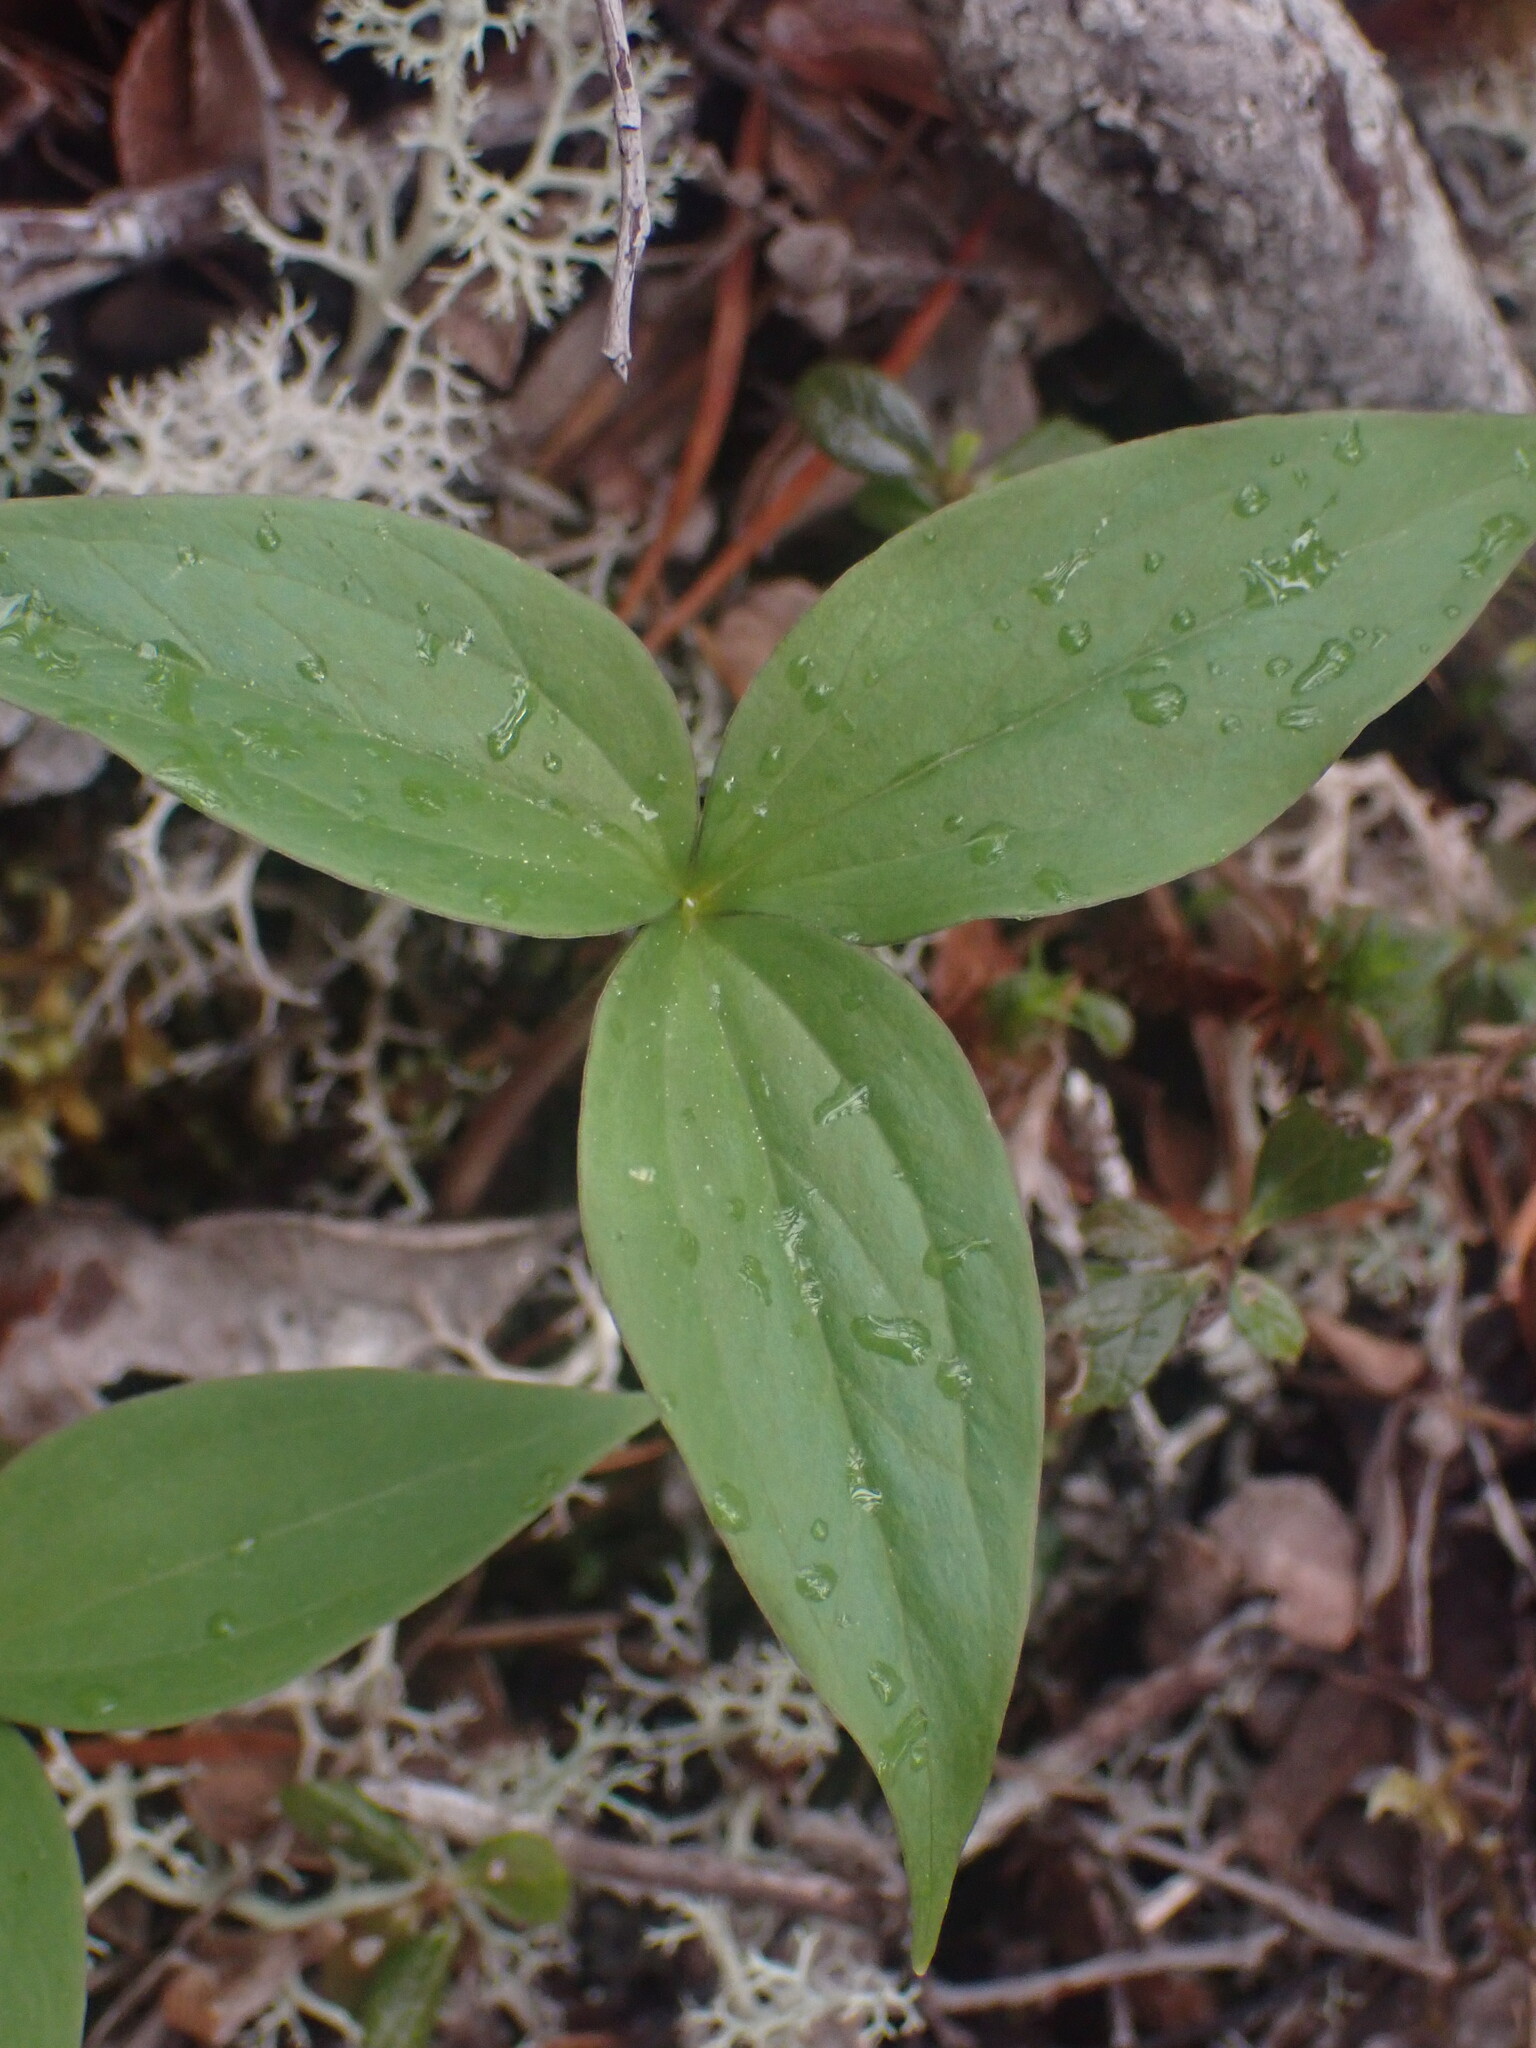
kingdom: Plantae
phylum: Tracheophyta
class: Liliopsida
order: Liliales
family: Melanthiaceae
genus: Trillium
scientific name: Trillium hibbersonii
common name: Hibberson's trillium
